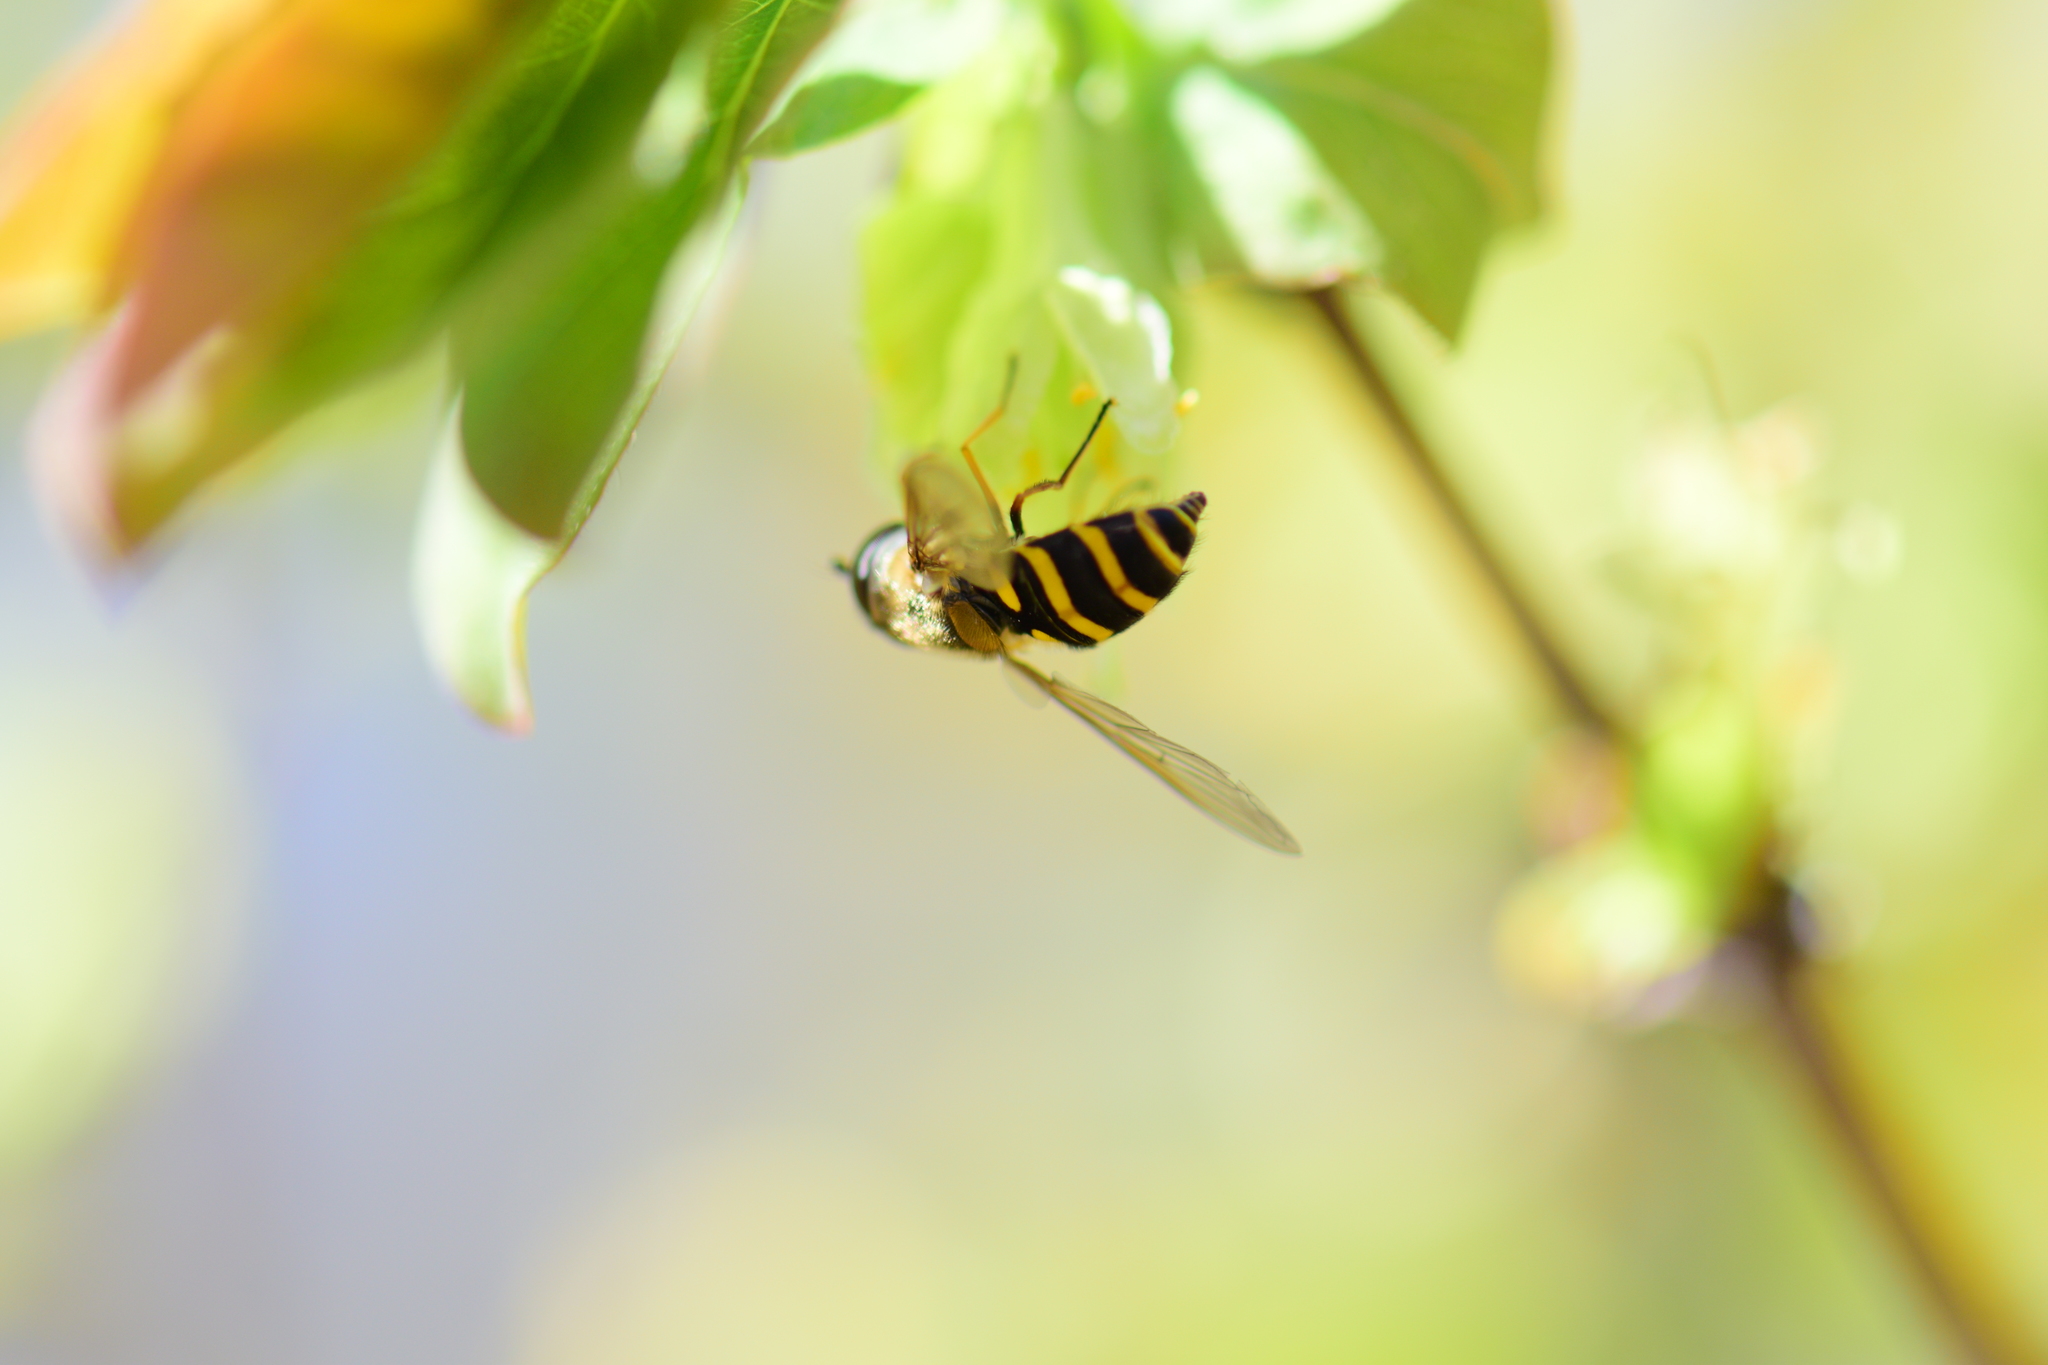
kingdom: Animalia
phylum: Arthropoda
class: Insecta
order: Diptera
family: Syrphidae
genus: Syrphus
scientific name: Syrphus
